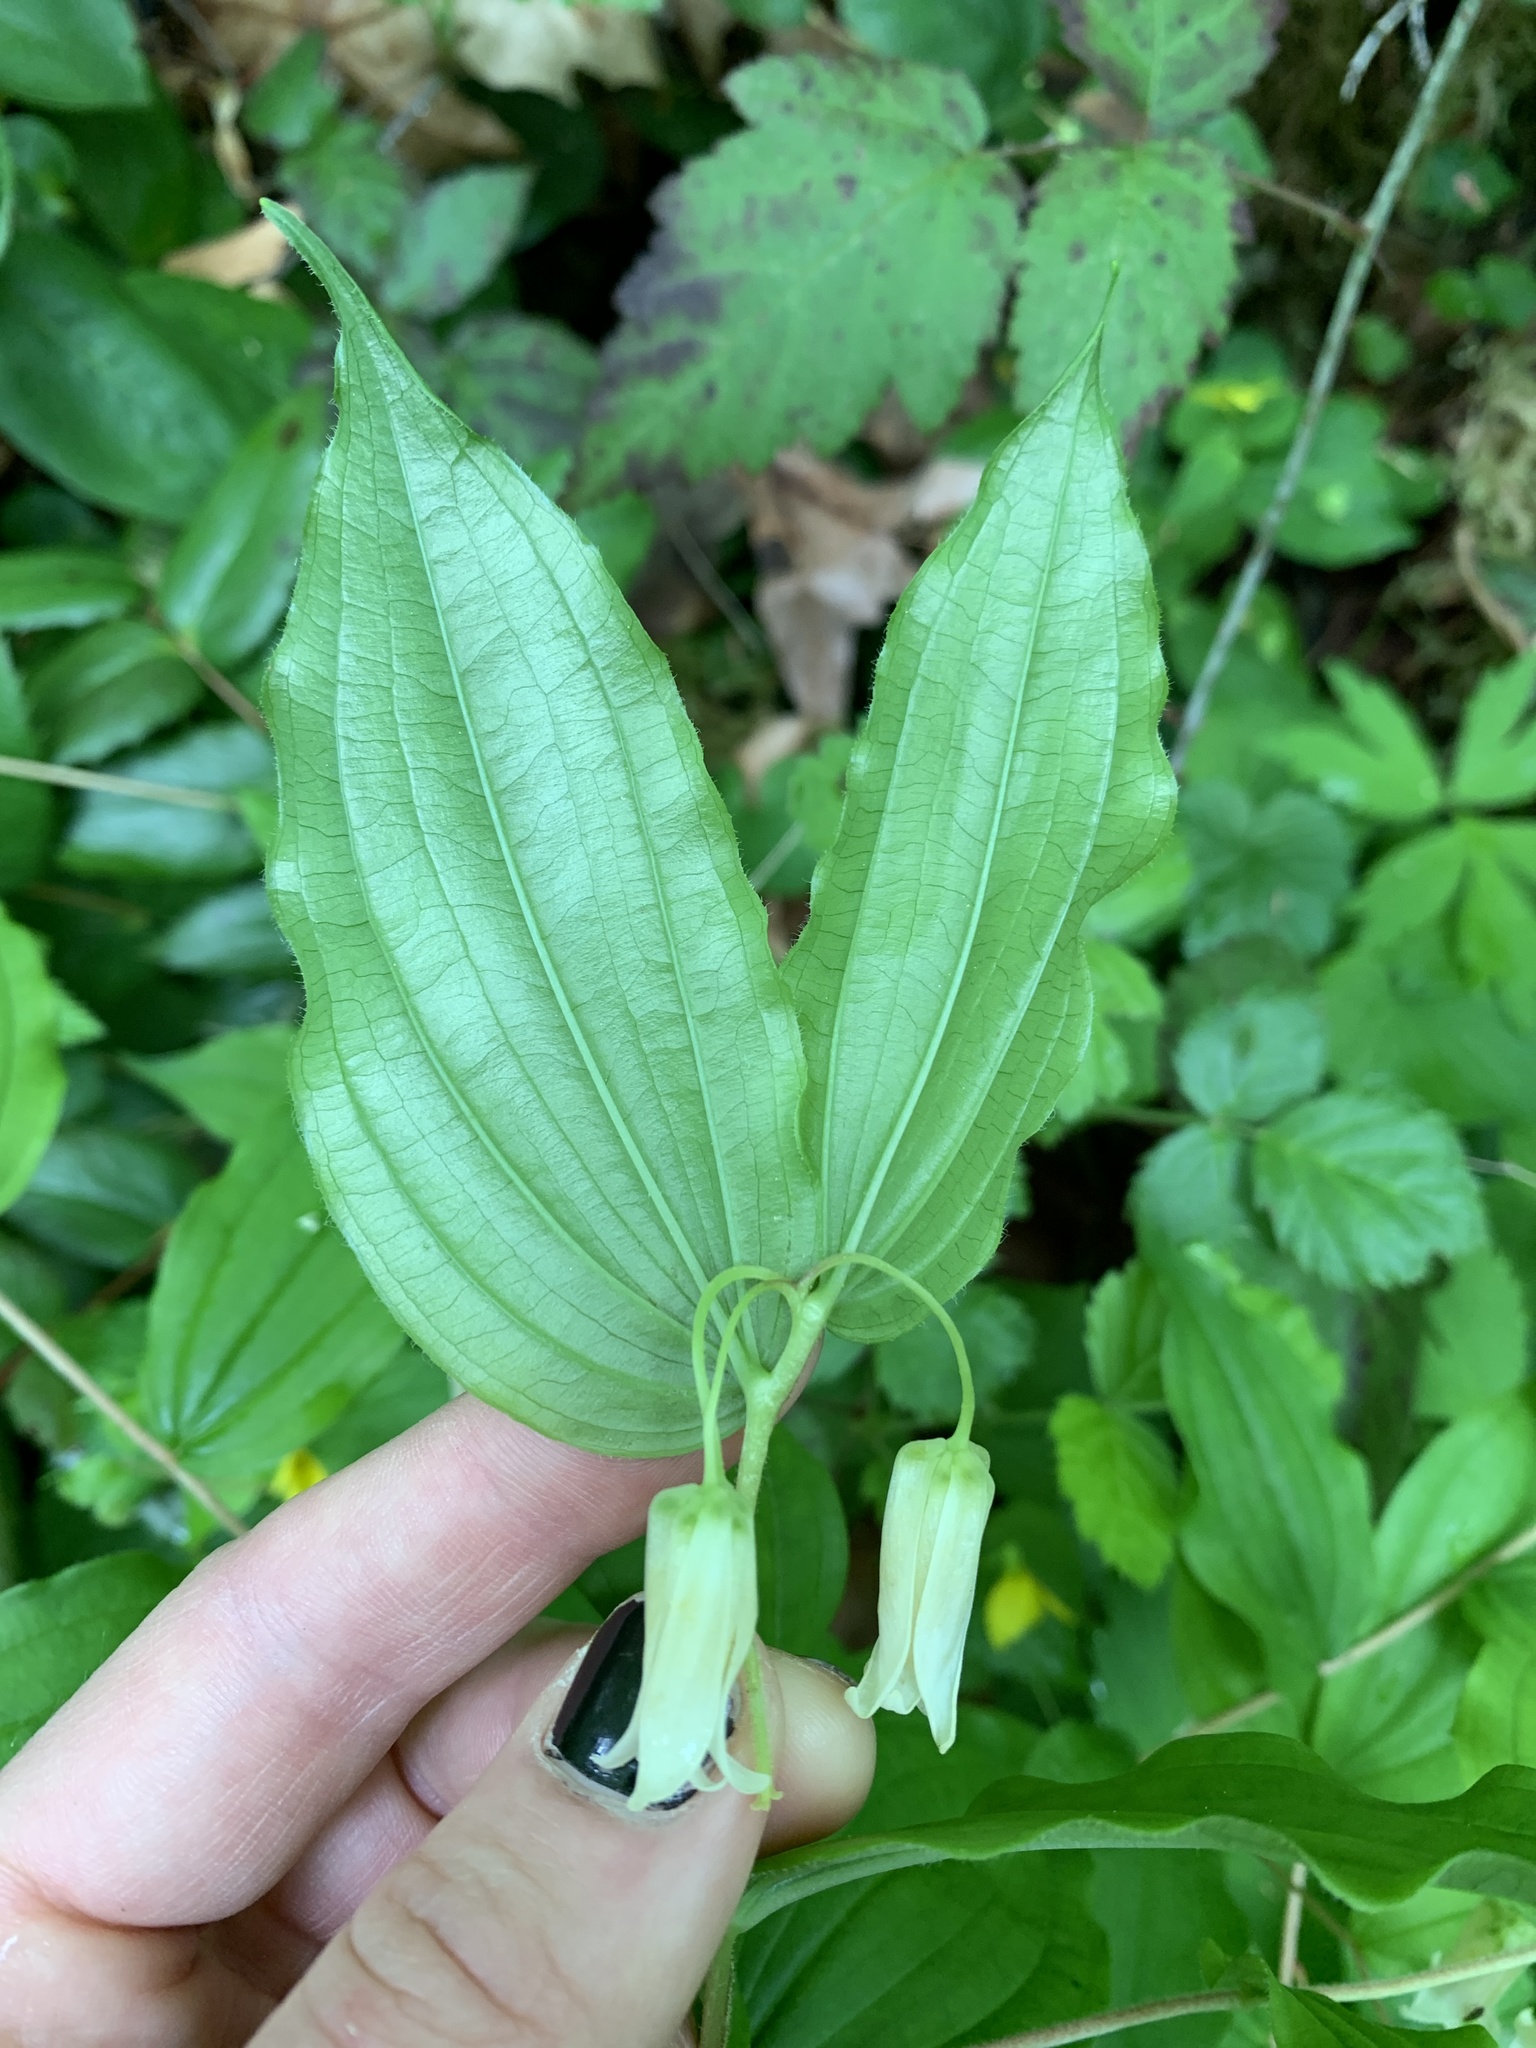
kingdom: Plantae
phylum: Tracheophyta
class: Liliopsida
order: Liliales
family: Liliaceae
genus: Prosartes
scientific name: Prosartes smithii
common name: Fairy-lantern
